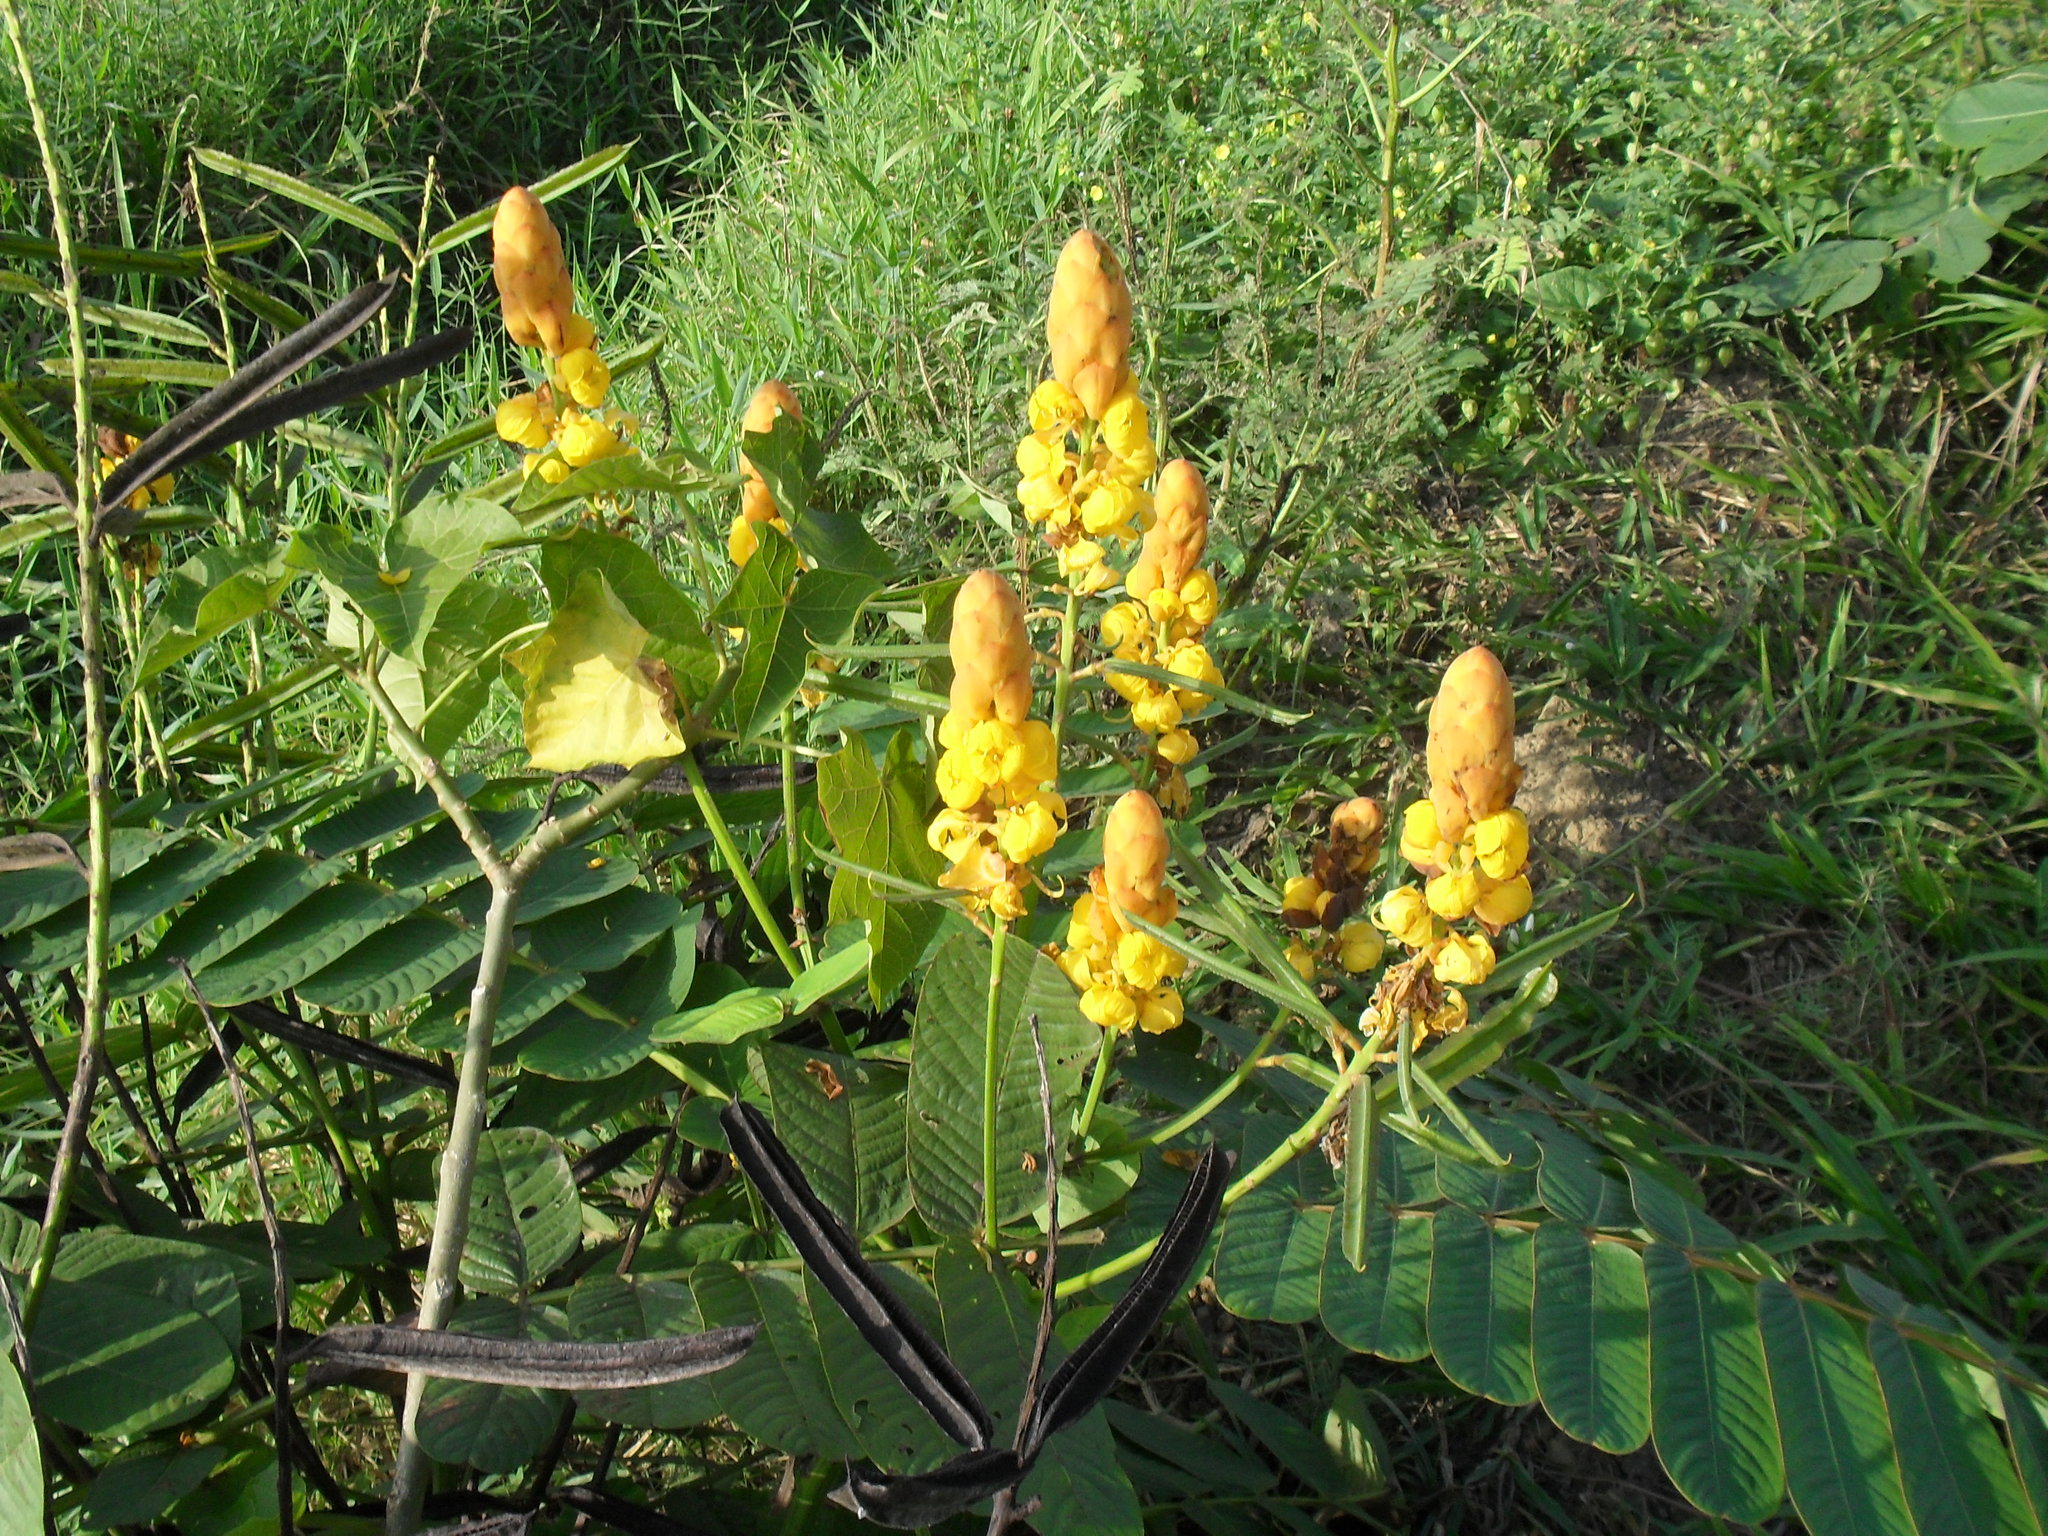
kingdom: Plantae
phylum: Tracheophyta
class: Magnoliopsida
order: Fabales
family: Fabaceae
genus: Senna
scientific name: Senna alata
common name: Emperor's candlesticks
